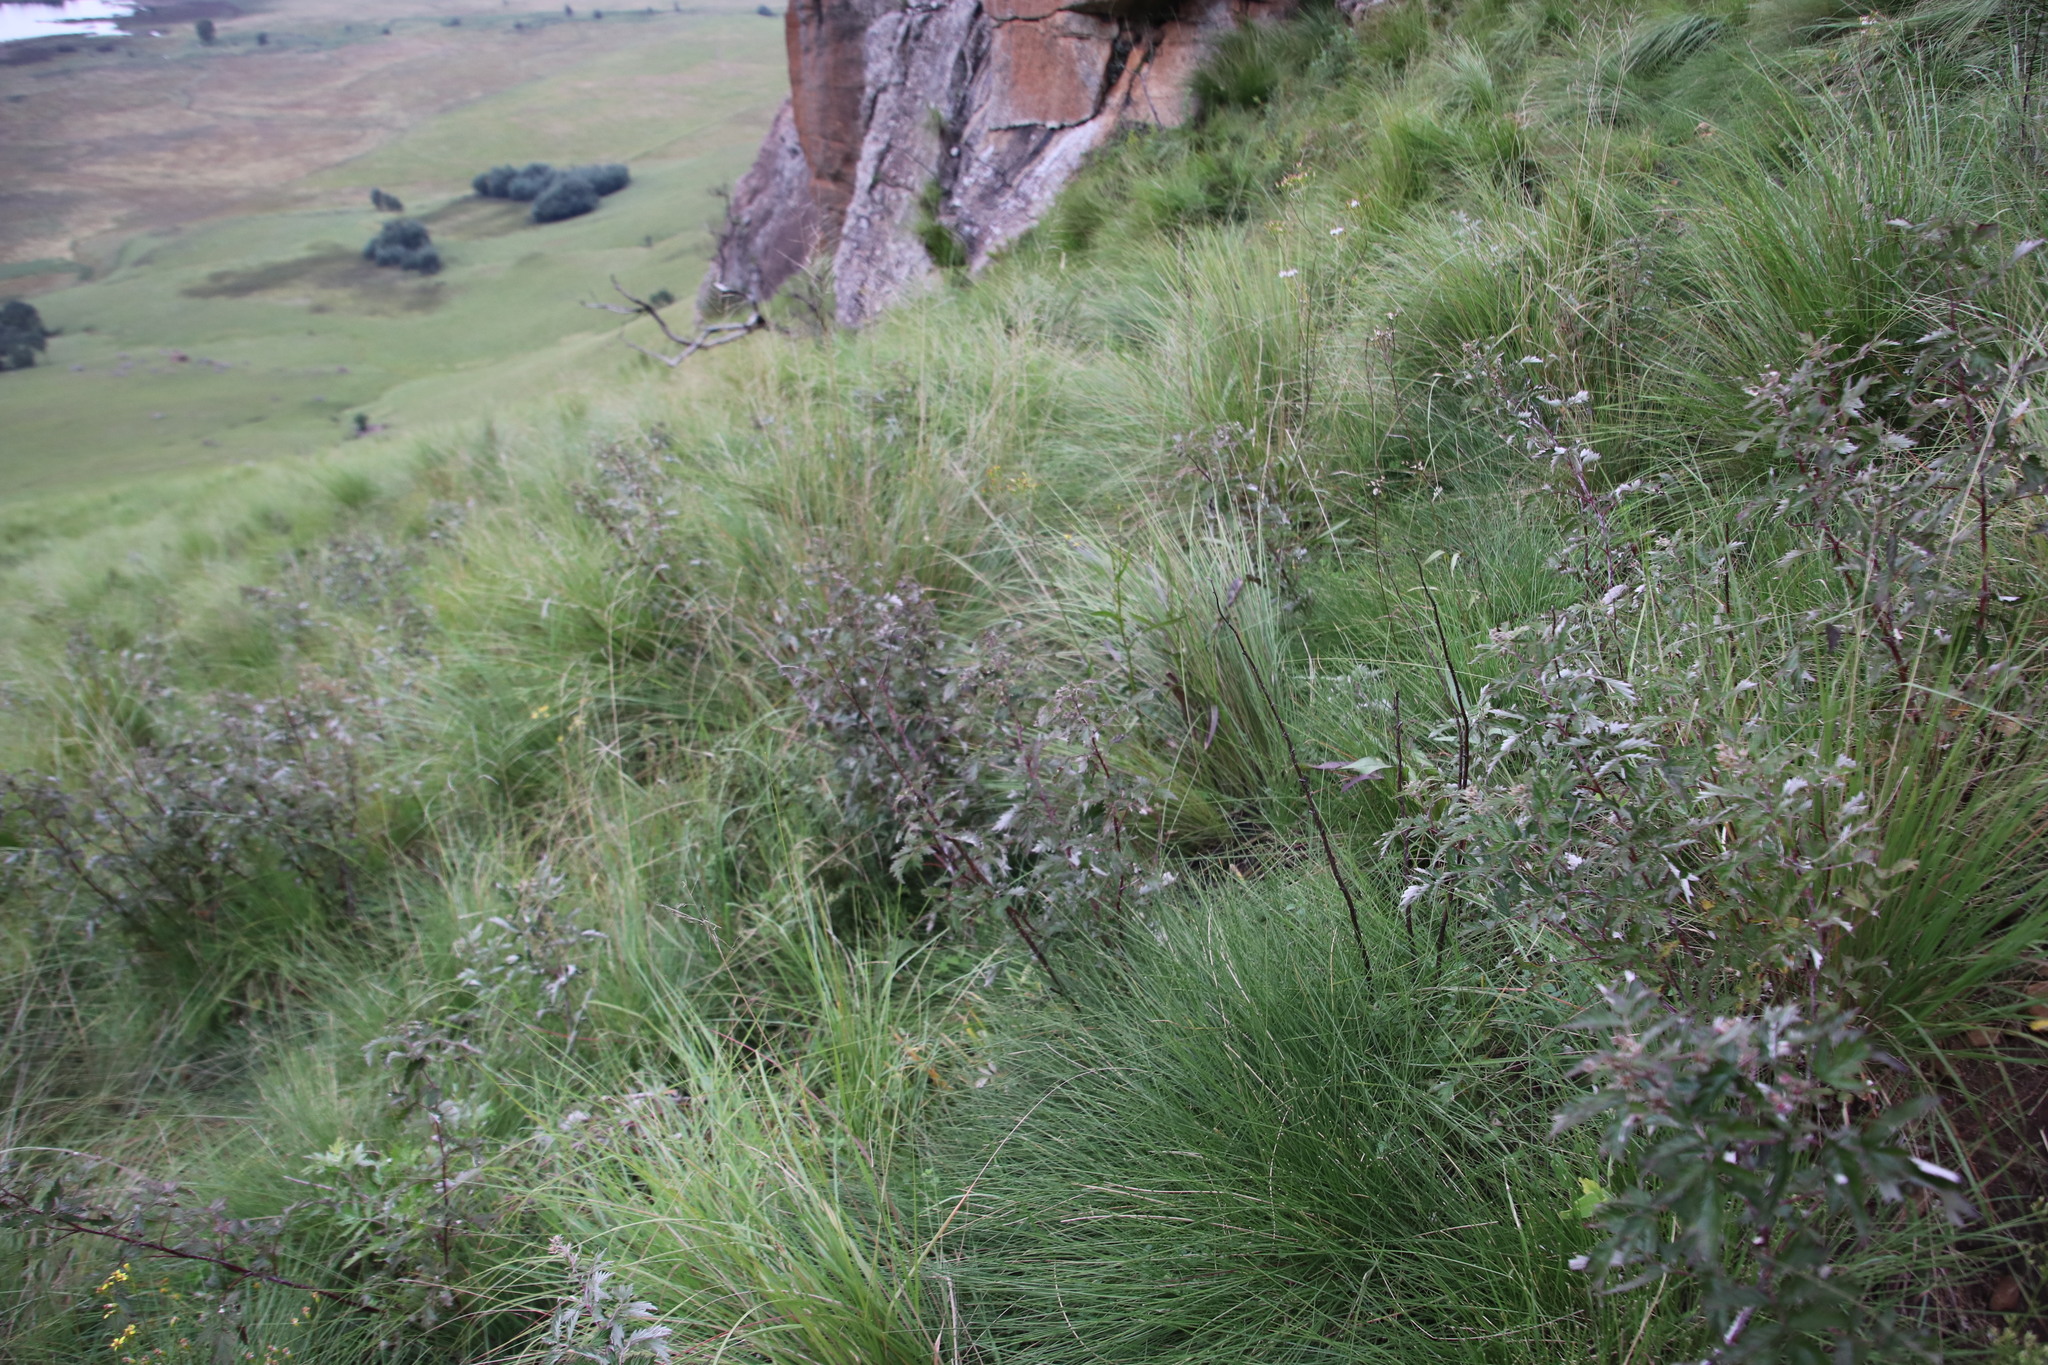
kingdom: Plantae
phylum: Tracheophyta
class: Magnoliopsida
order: Rosales
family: Rosaceae
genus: Rubus
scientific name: Rubus ludwigii
